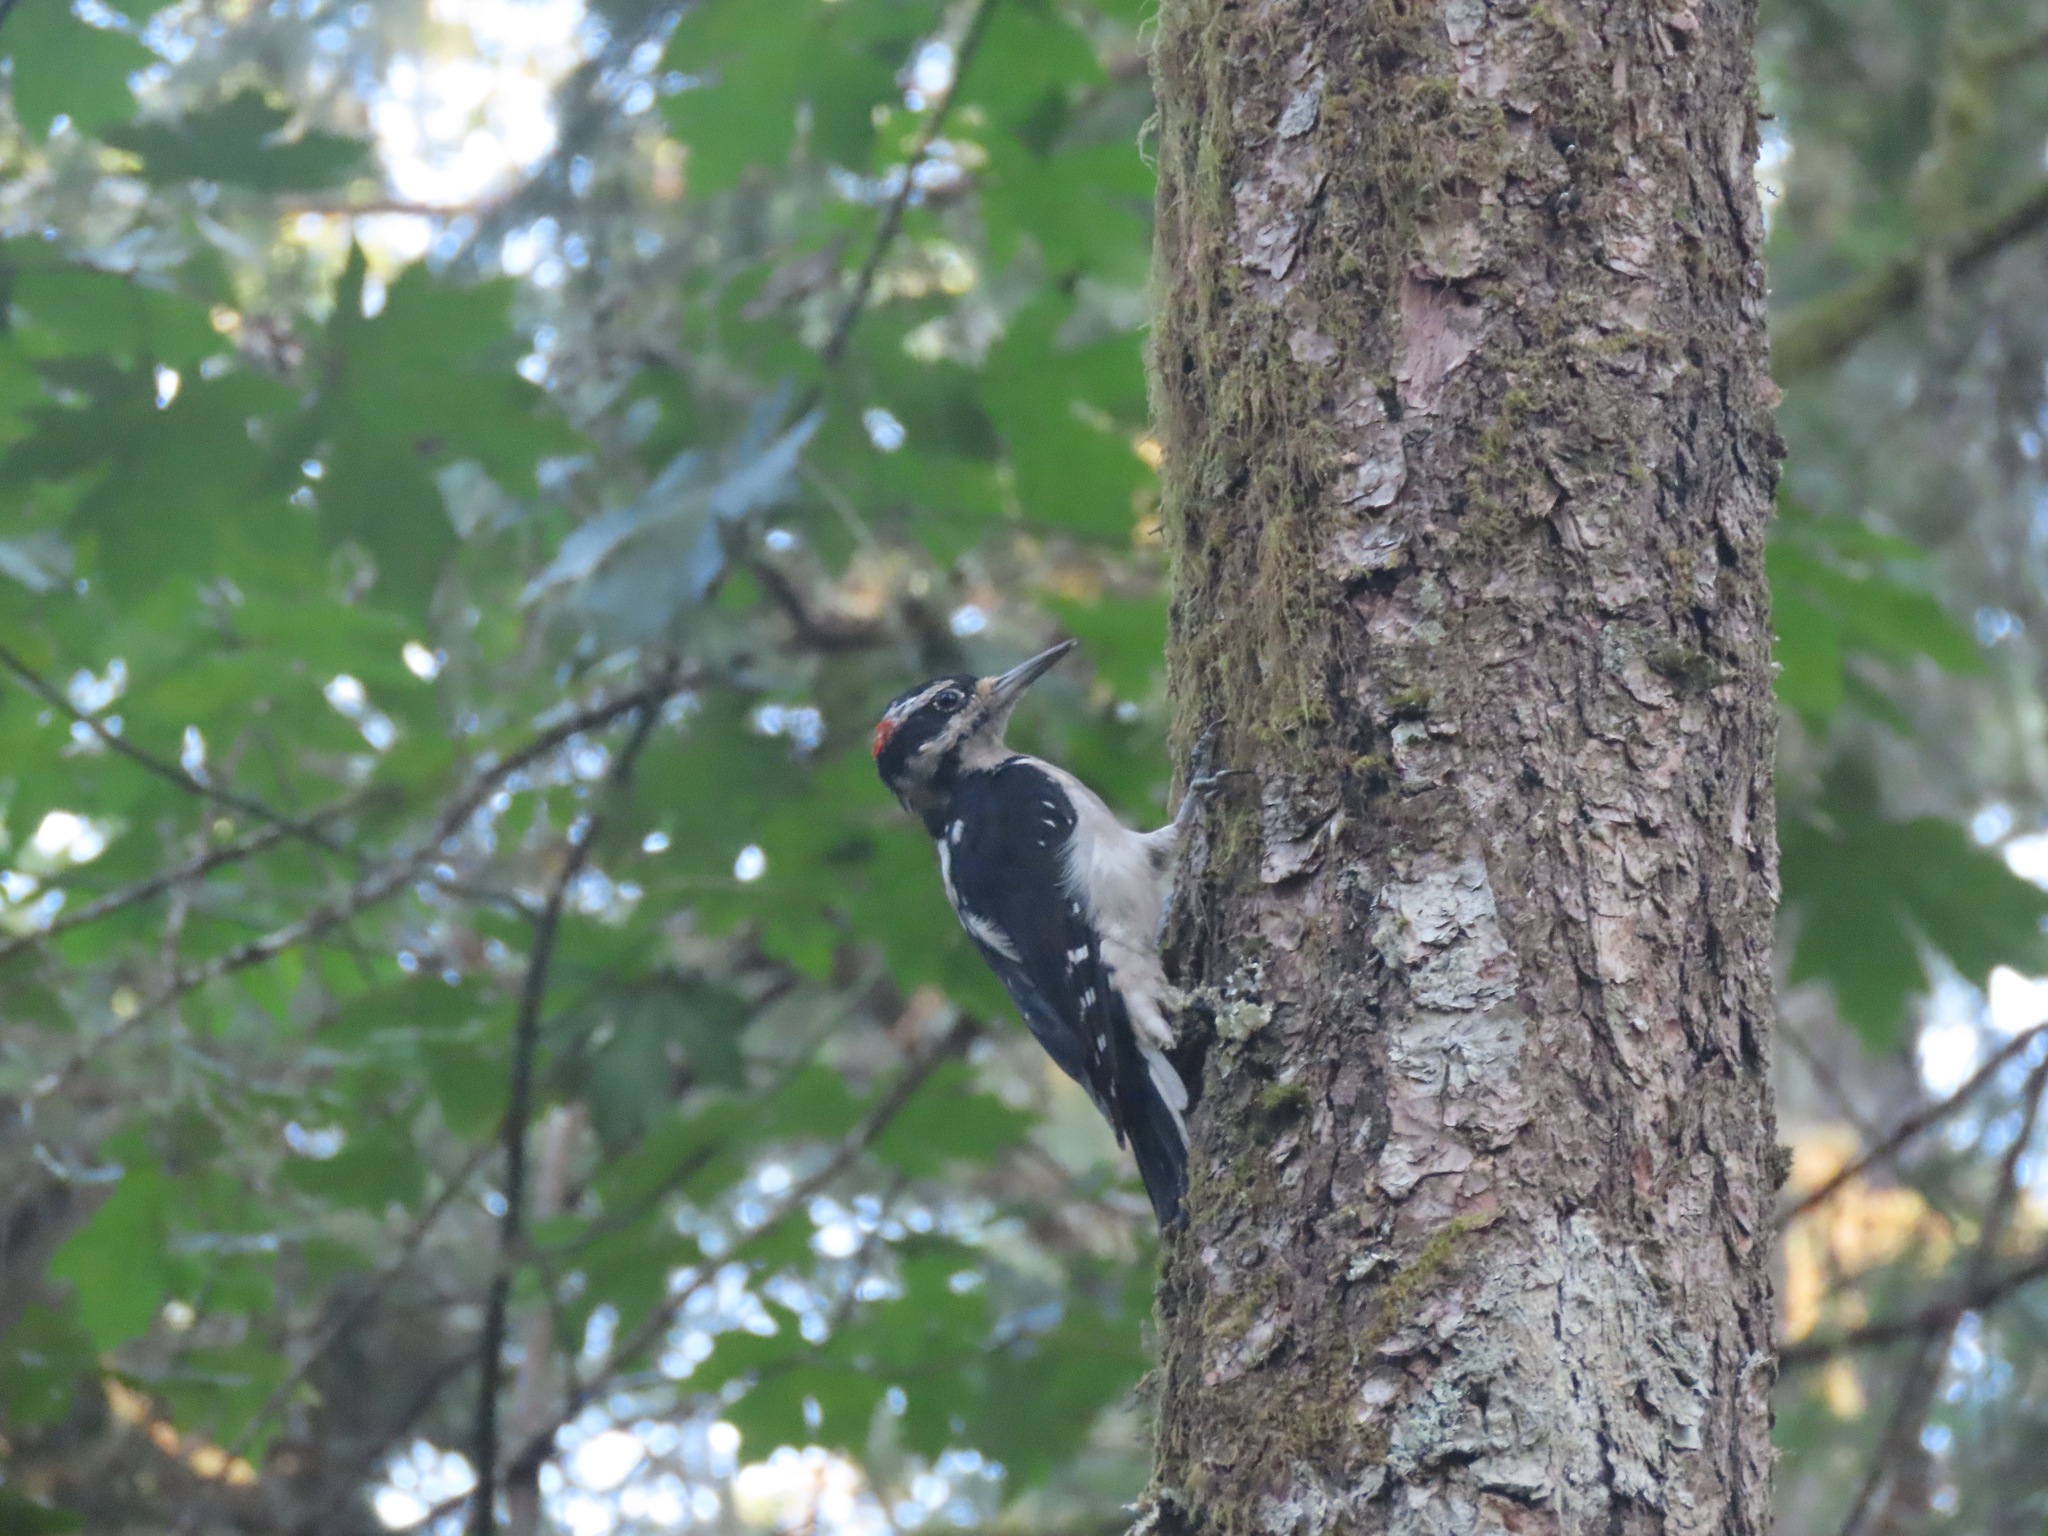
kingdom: Animalia
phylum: Chordata
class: Aves
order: Piciformes
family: Picidae
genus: Leuconotopicus
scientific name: Leuconotopicus villosus
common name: Hairy woodpecker
